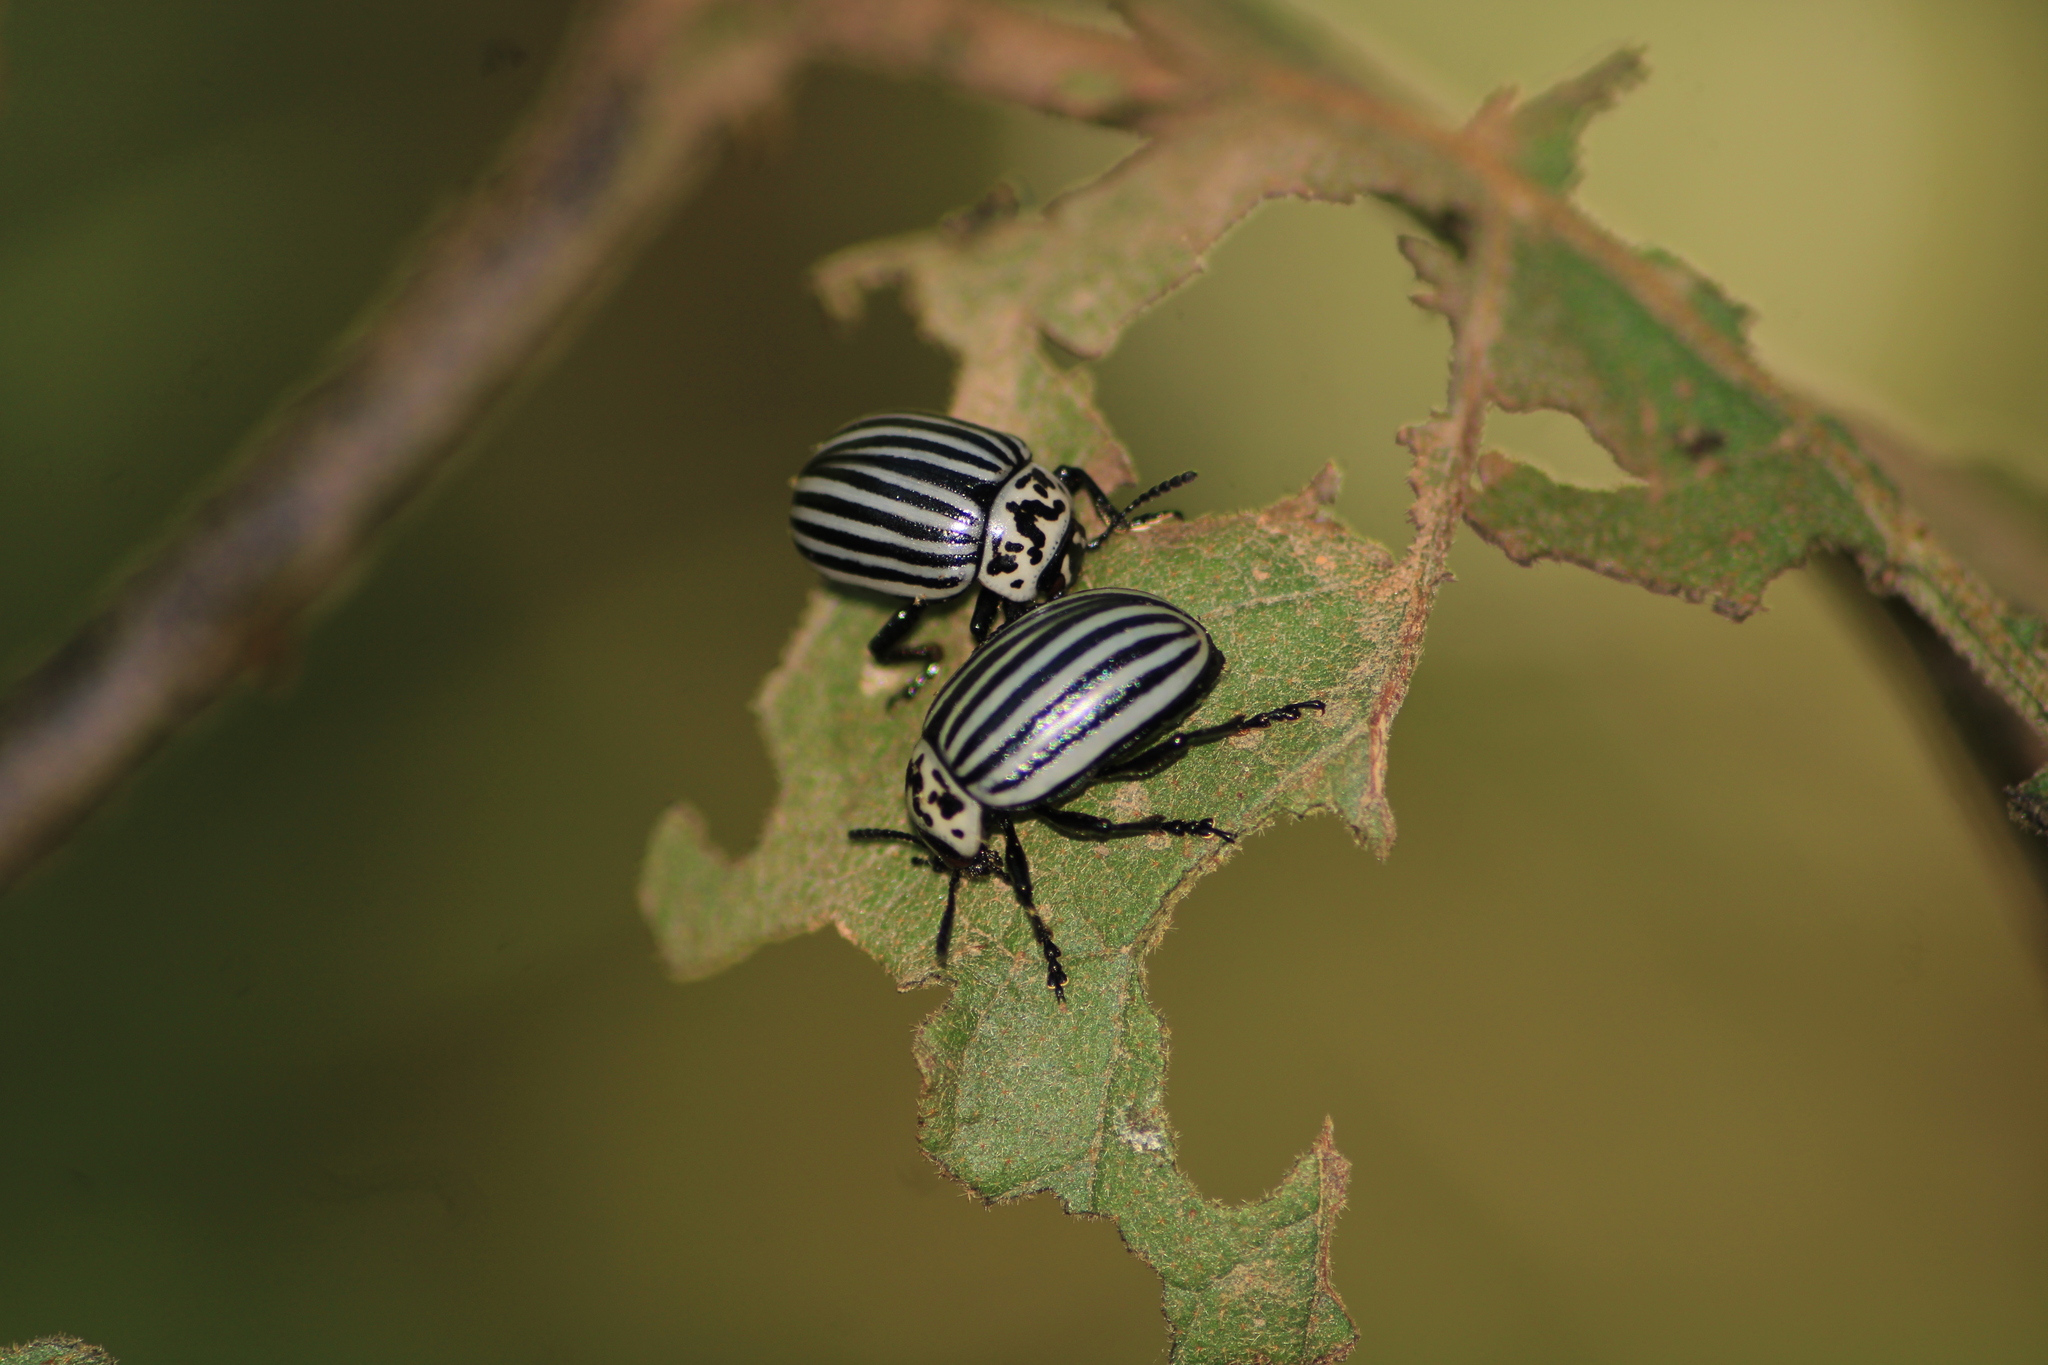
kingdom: Animalia
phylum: Arthropoda
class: Insecta
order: Coleoptera
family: Chrysomelidae
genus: Leptinotarsa
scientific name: Leptinotarsa
